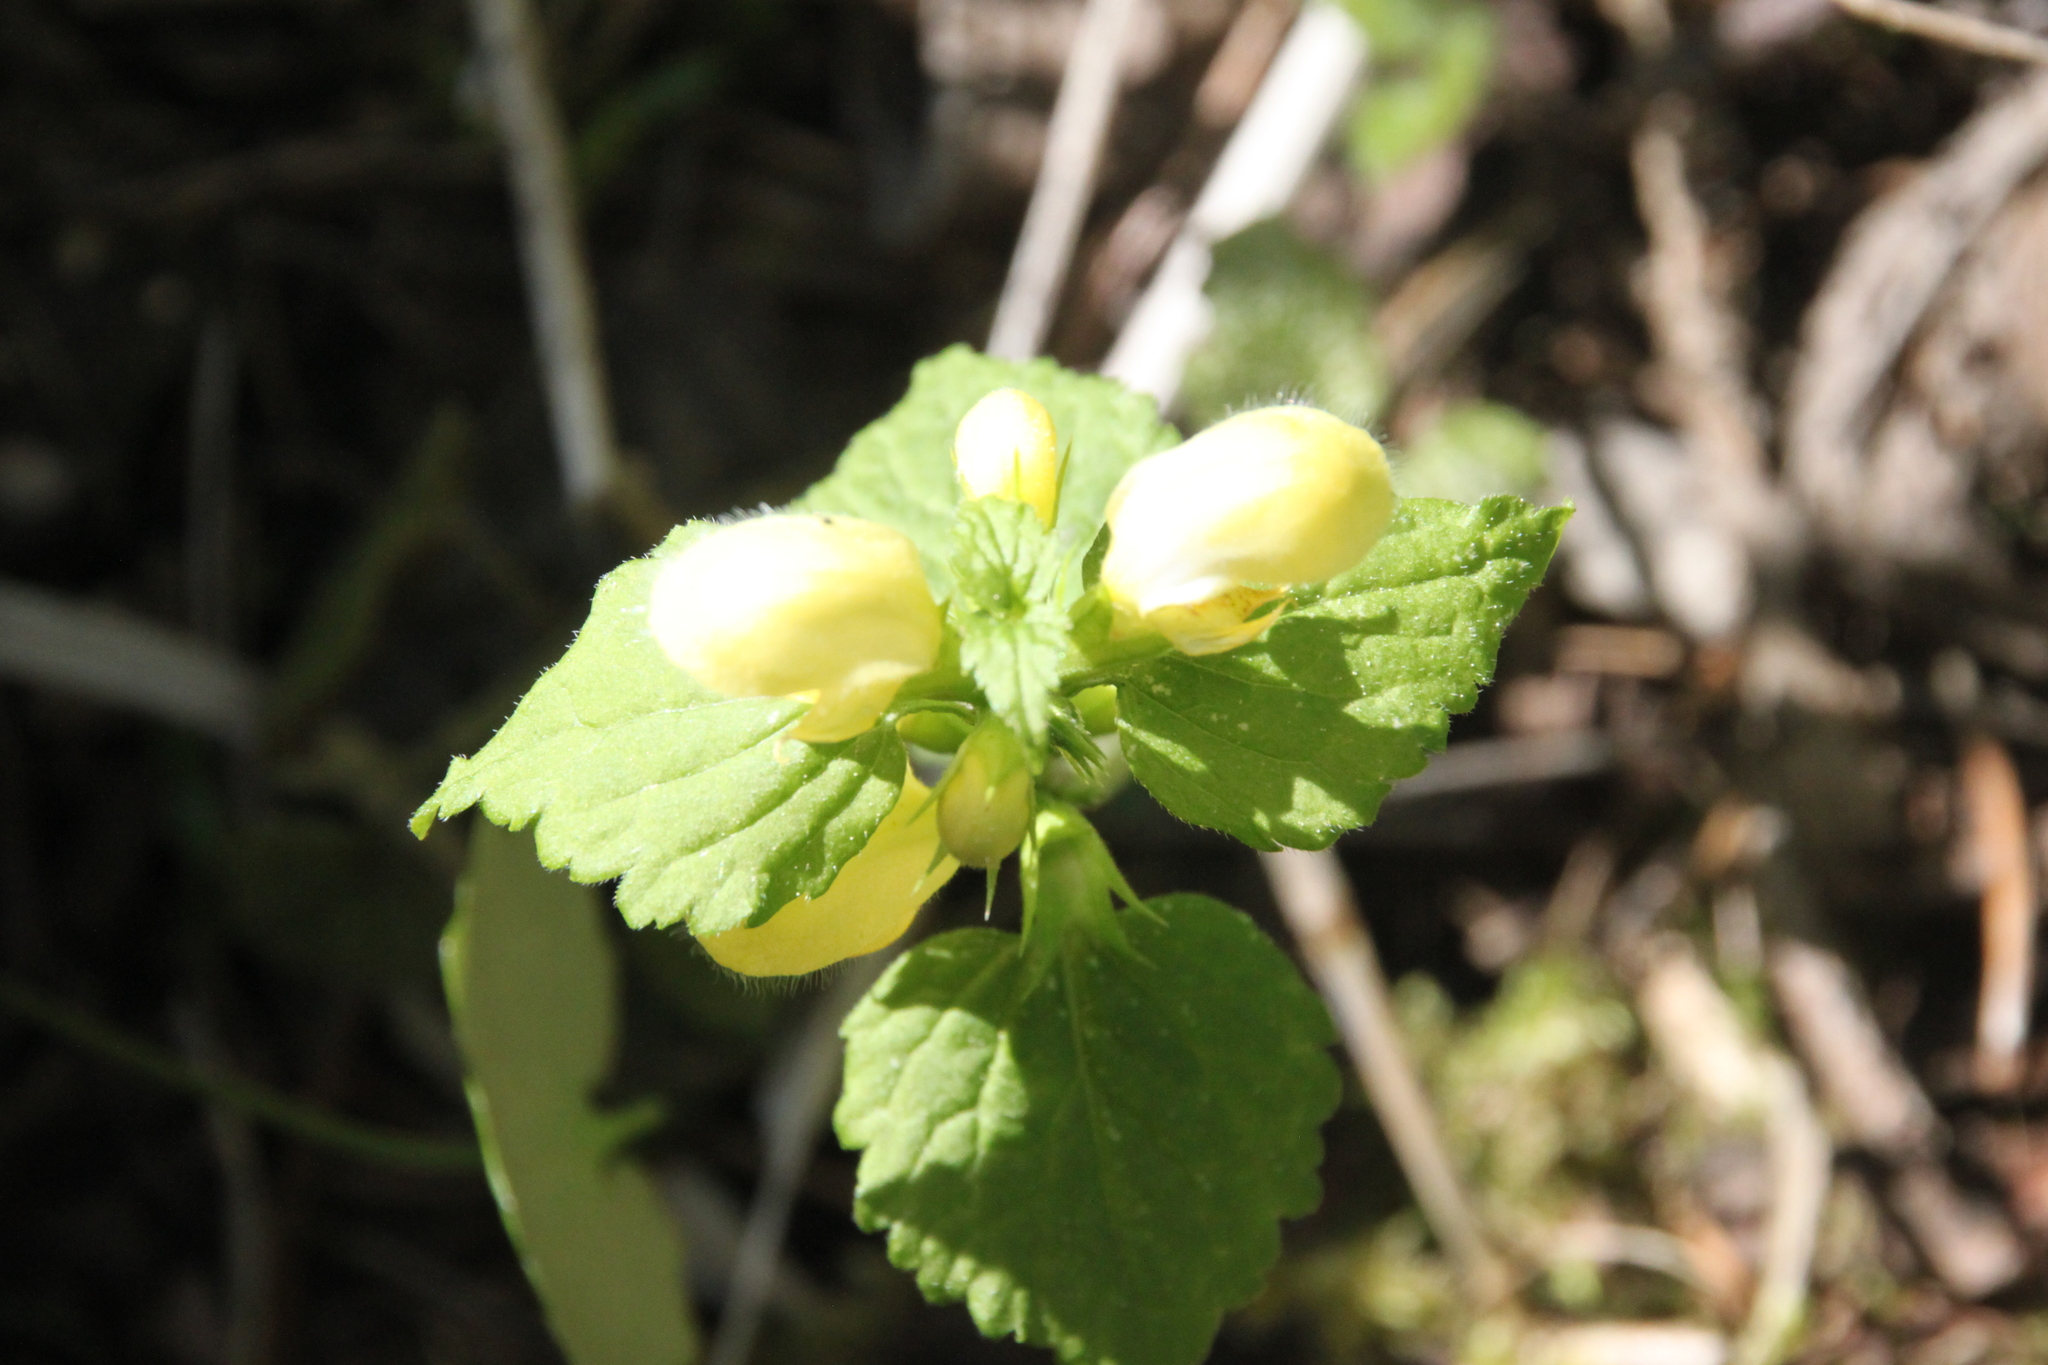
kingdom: Plantae
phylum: Tracheophyta
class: Magnoliopsida
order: Lamiales
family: Lamiaceae
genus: Lamium
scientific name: Lamium galeobdolon
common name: Yellow archangel
